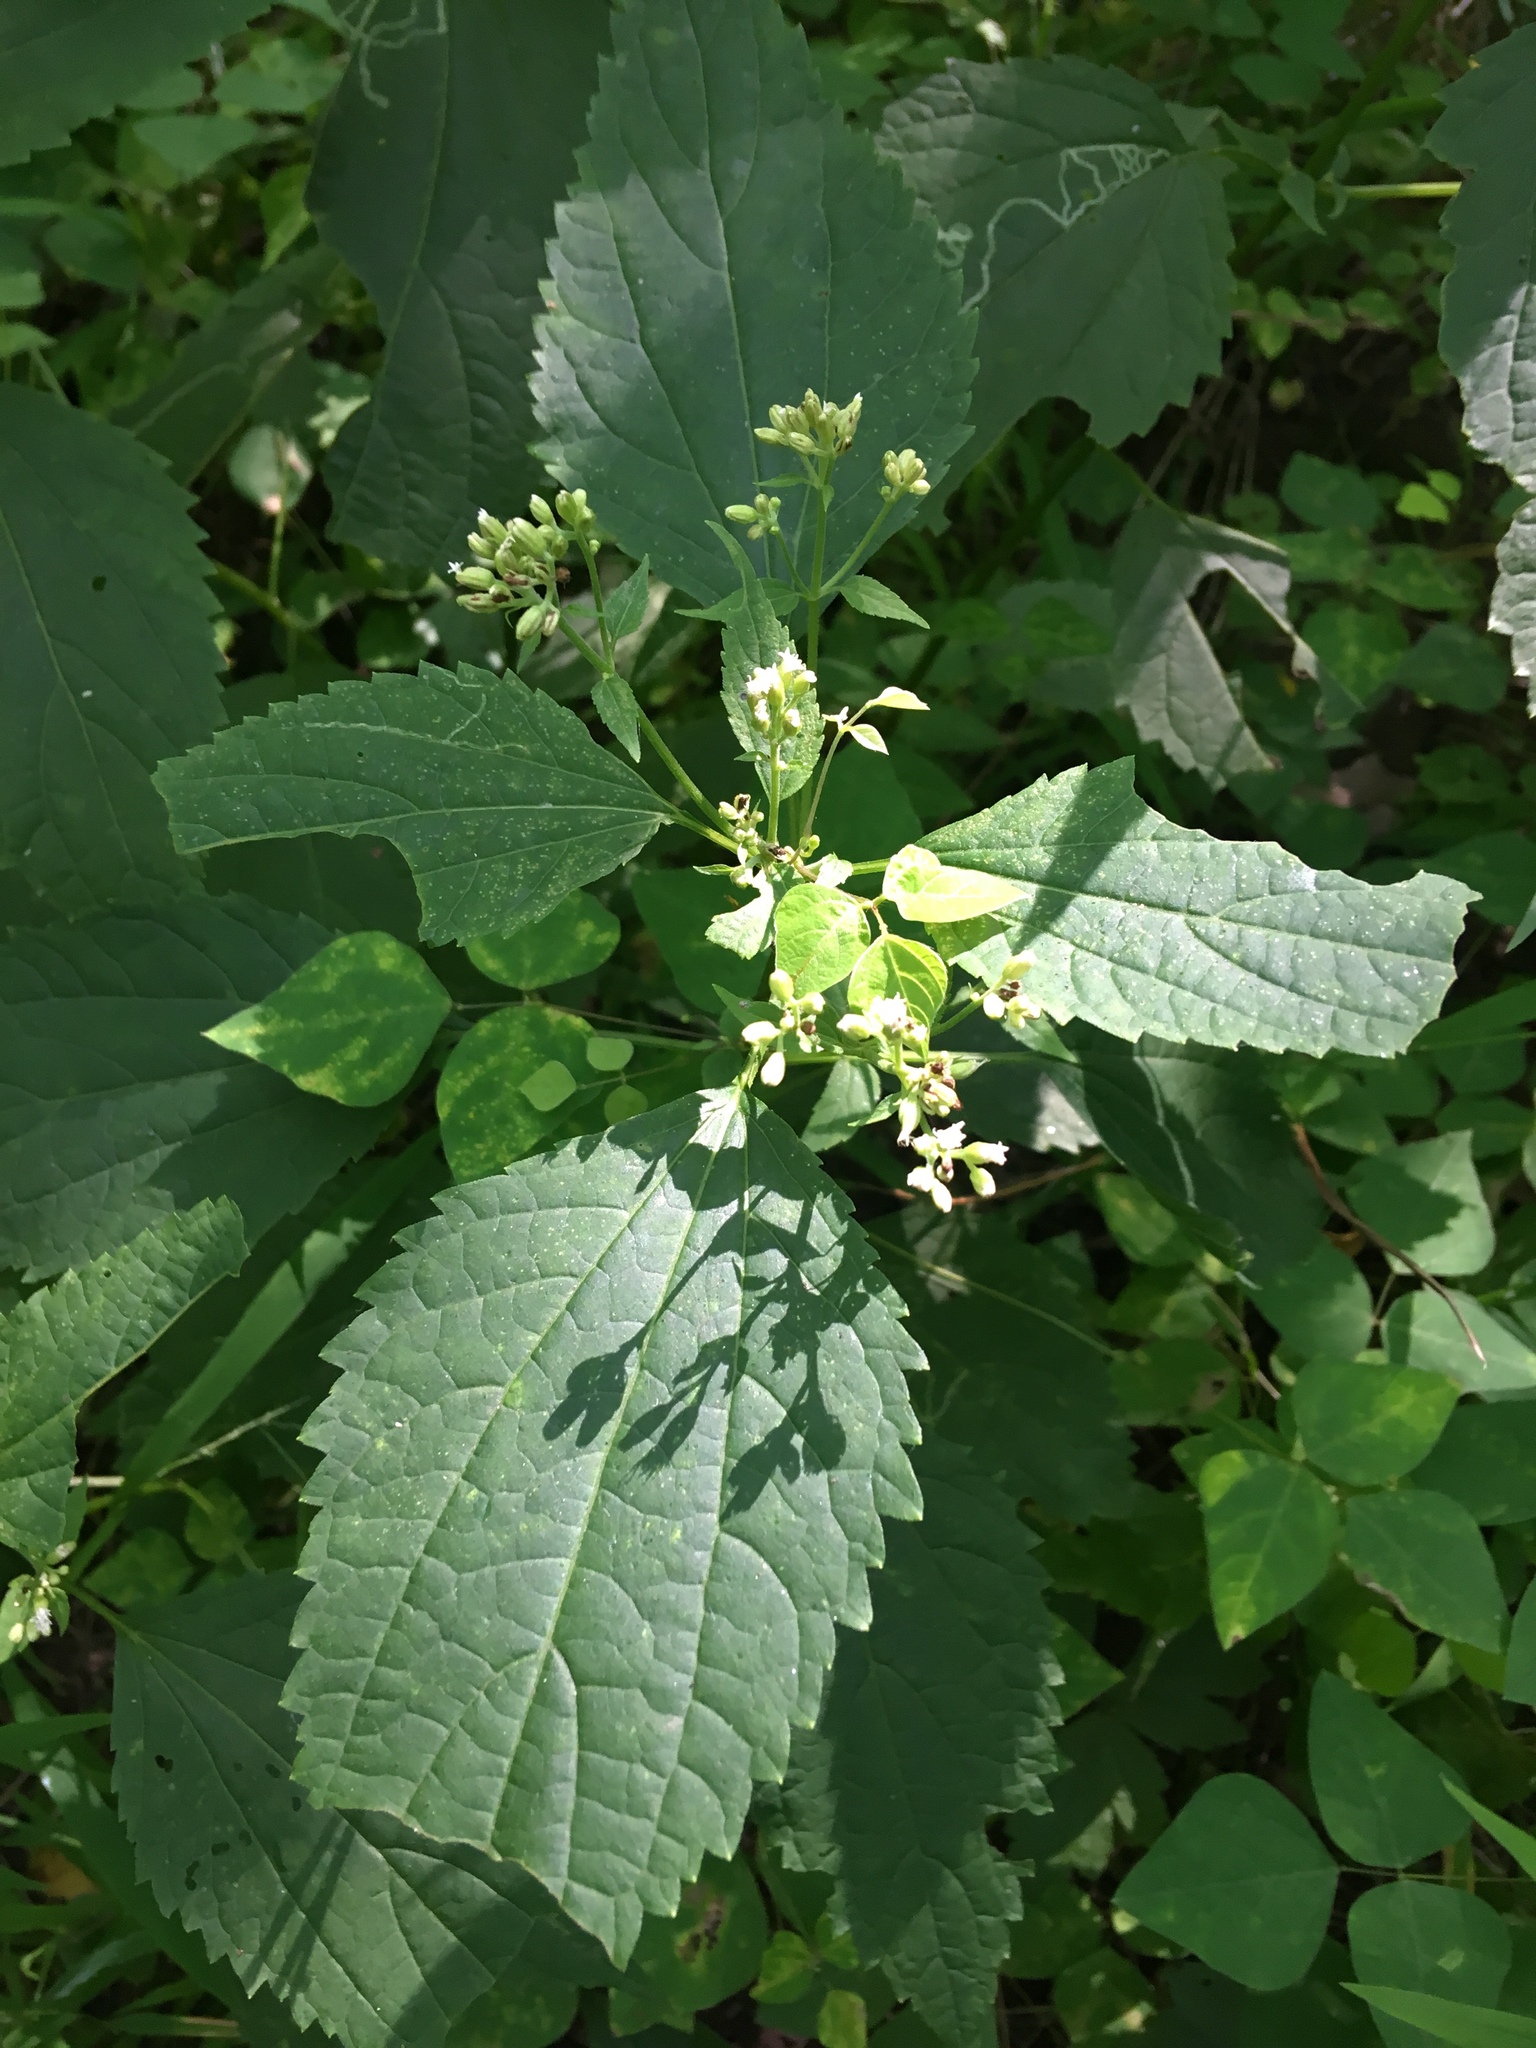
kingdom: Plantae
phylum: Tracheophyta
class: Magnoliopsida
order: Asterales
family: Asteraceae
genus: Ageratina
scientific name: Ageratina altissima
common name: White snakeroot
